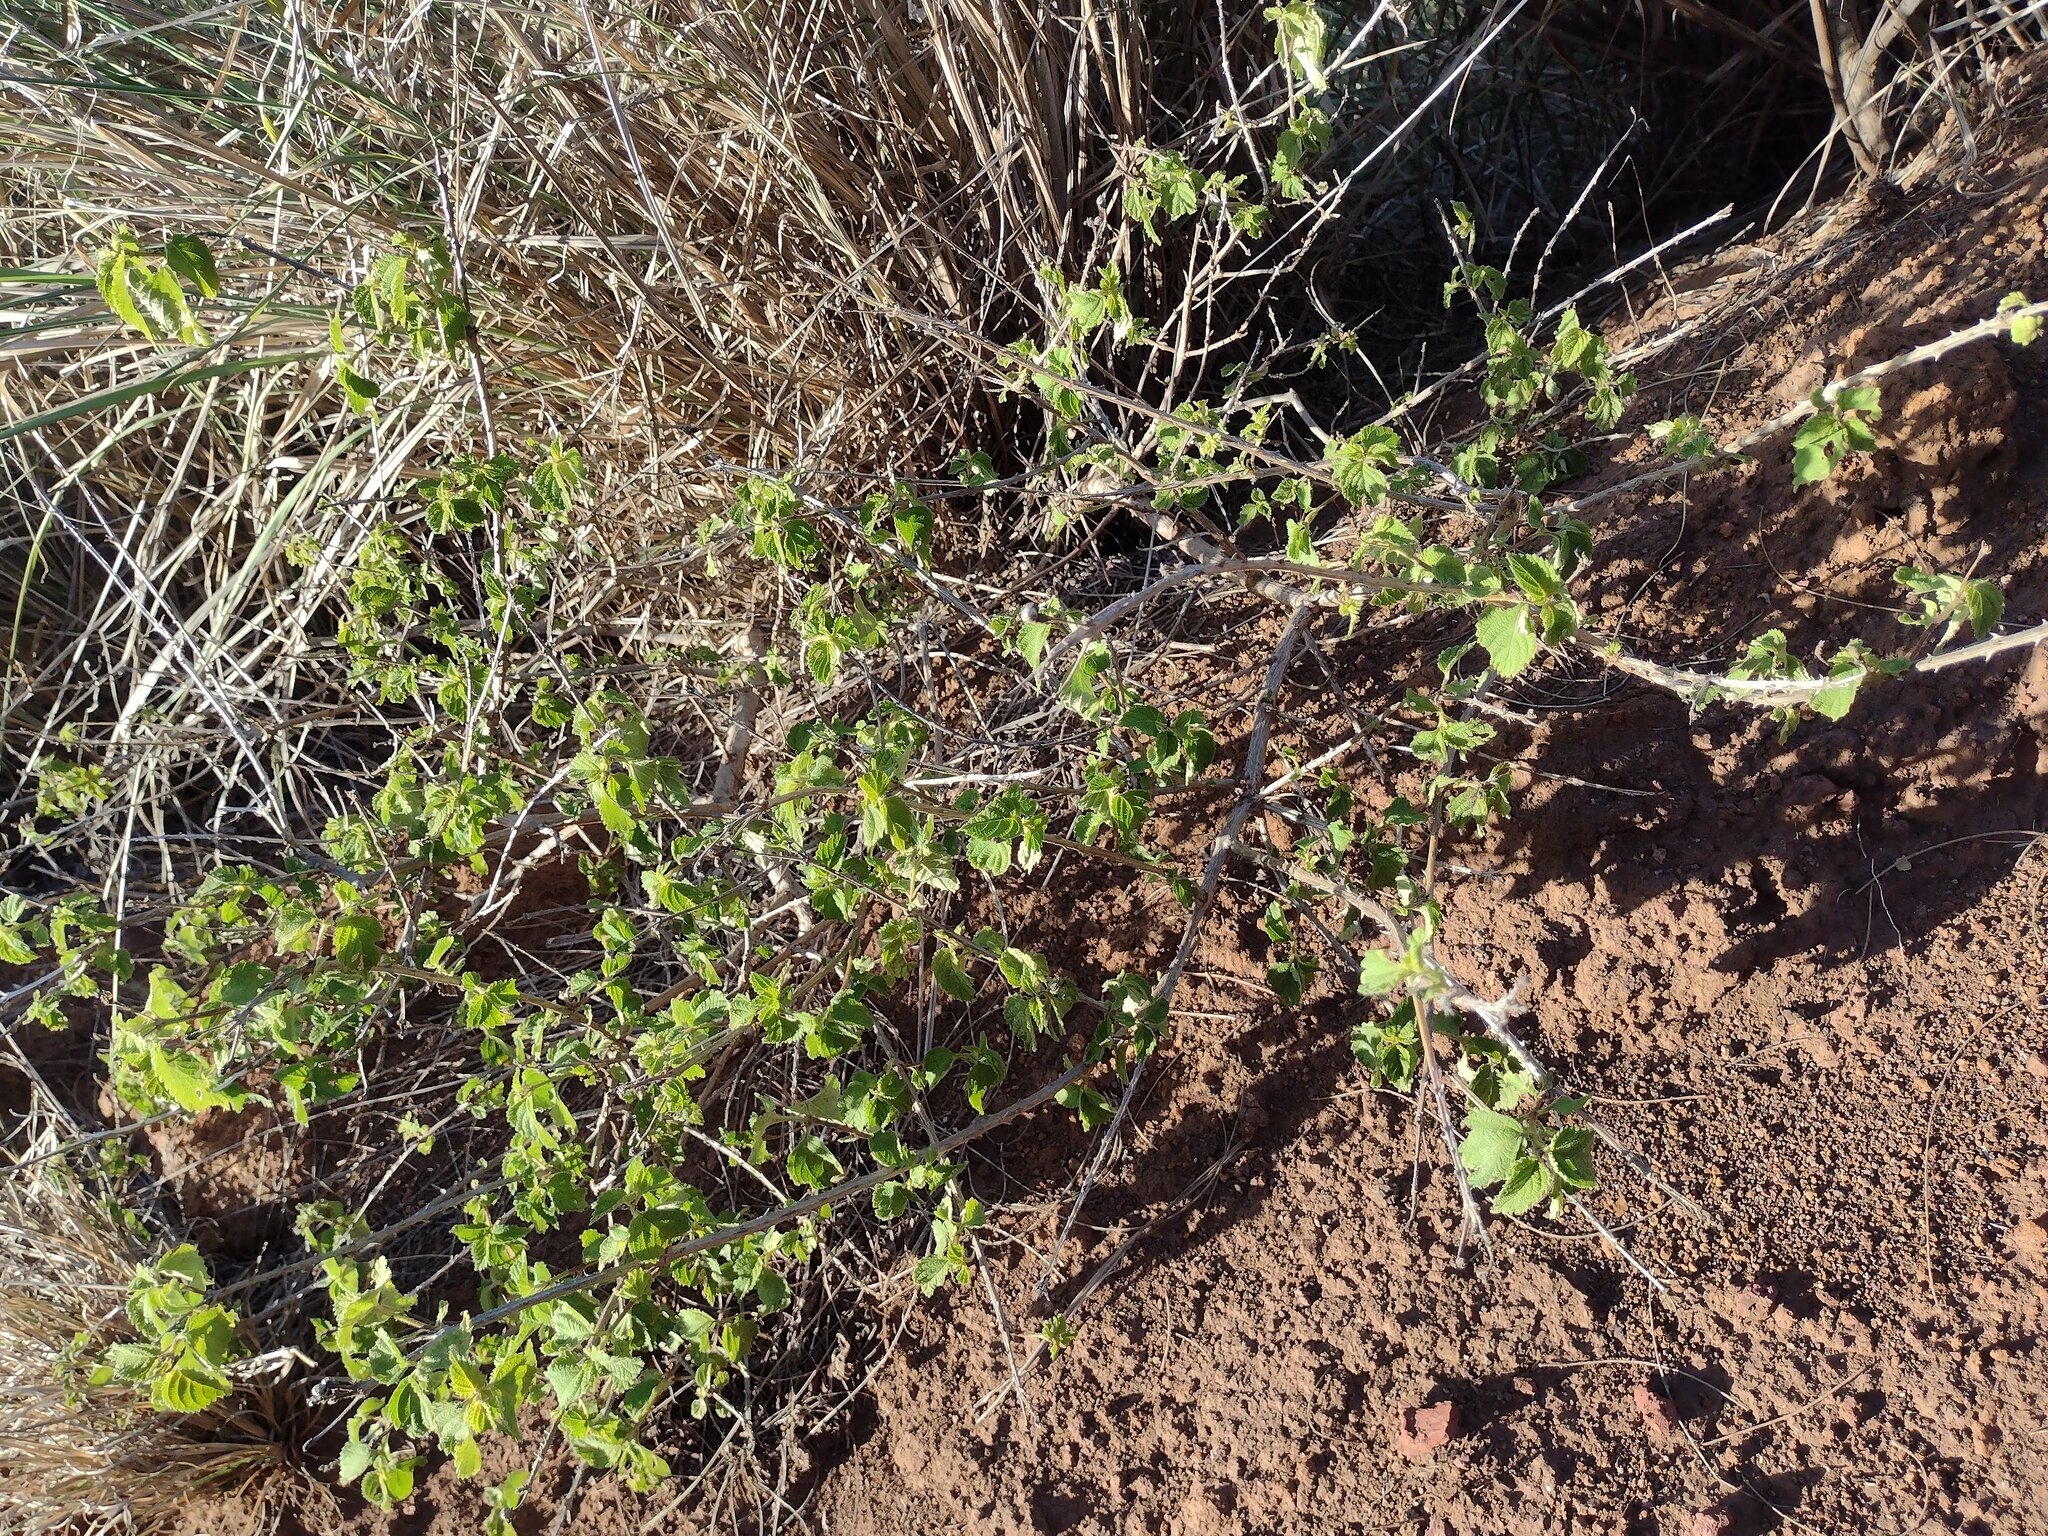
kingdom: Plantae
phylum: Tracheophyta
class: Magnoliopsida
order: Lamiales
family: Verbenaceae
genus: Lantana
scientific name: Lantana camara
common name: Lantana
